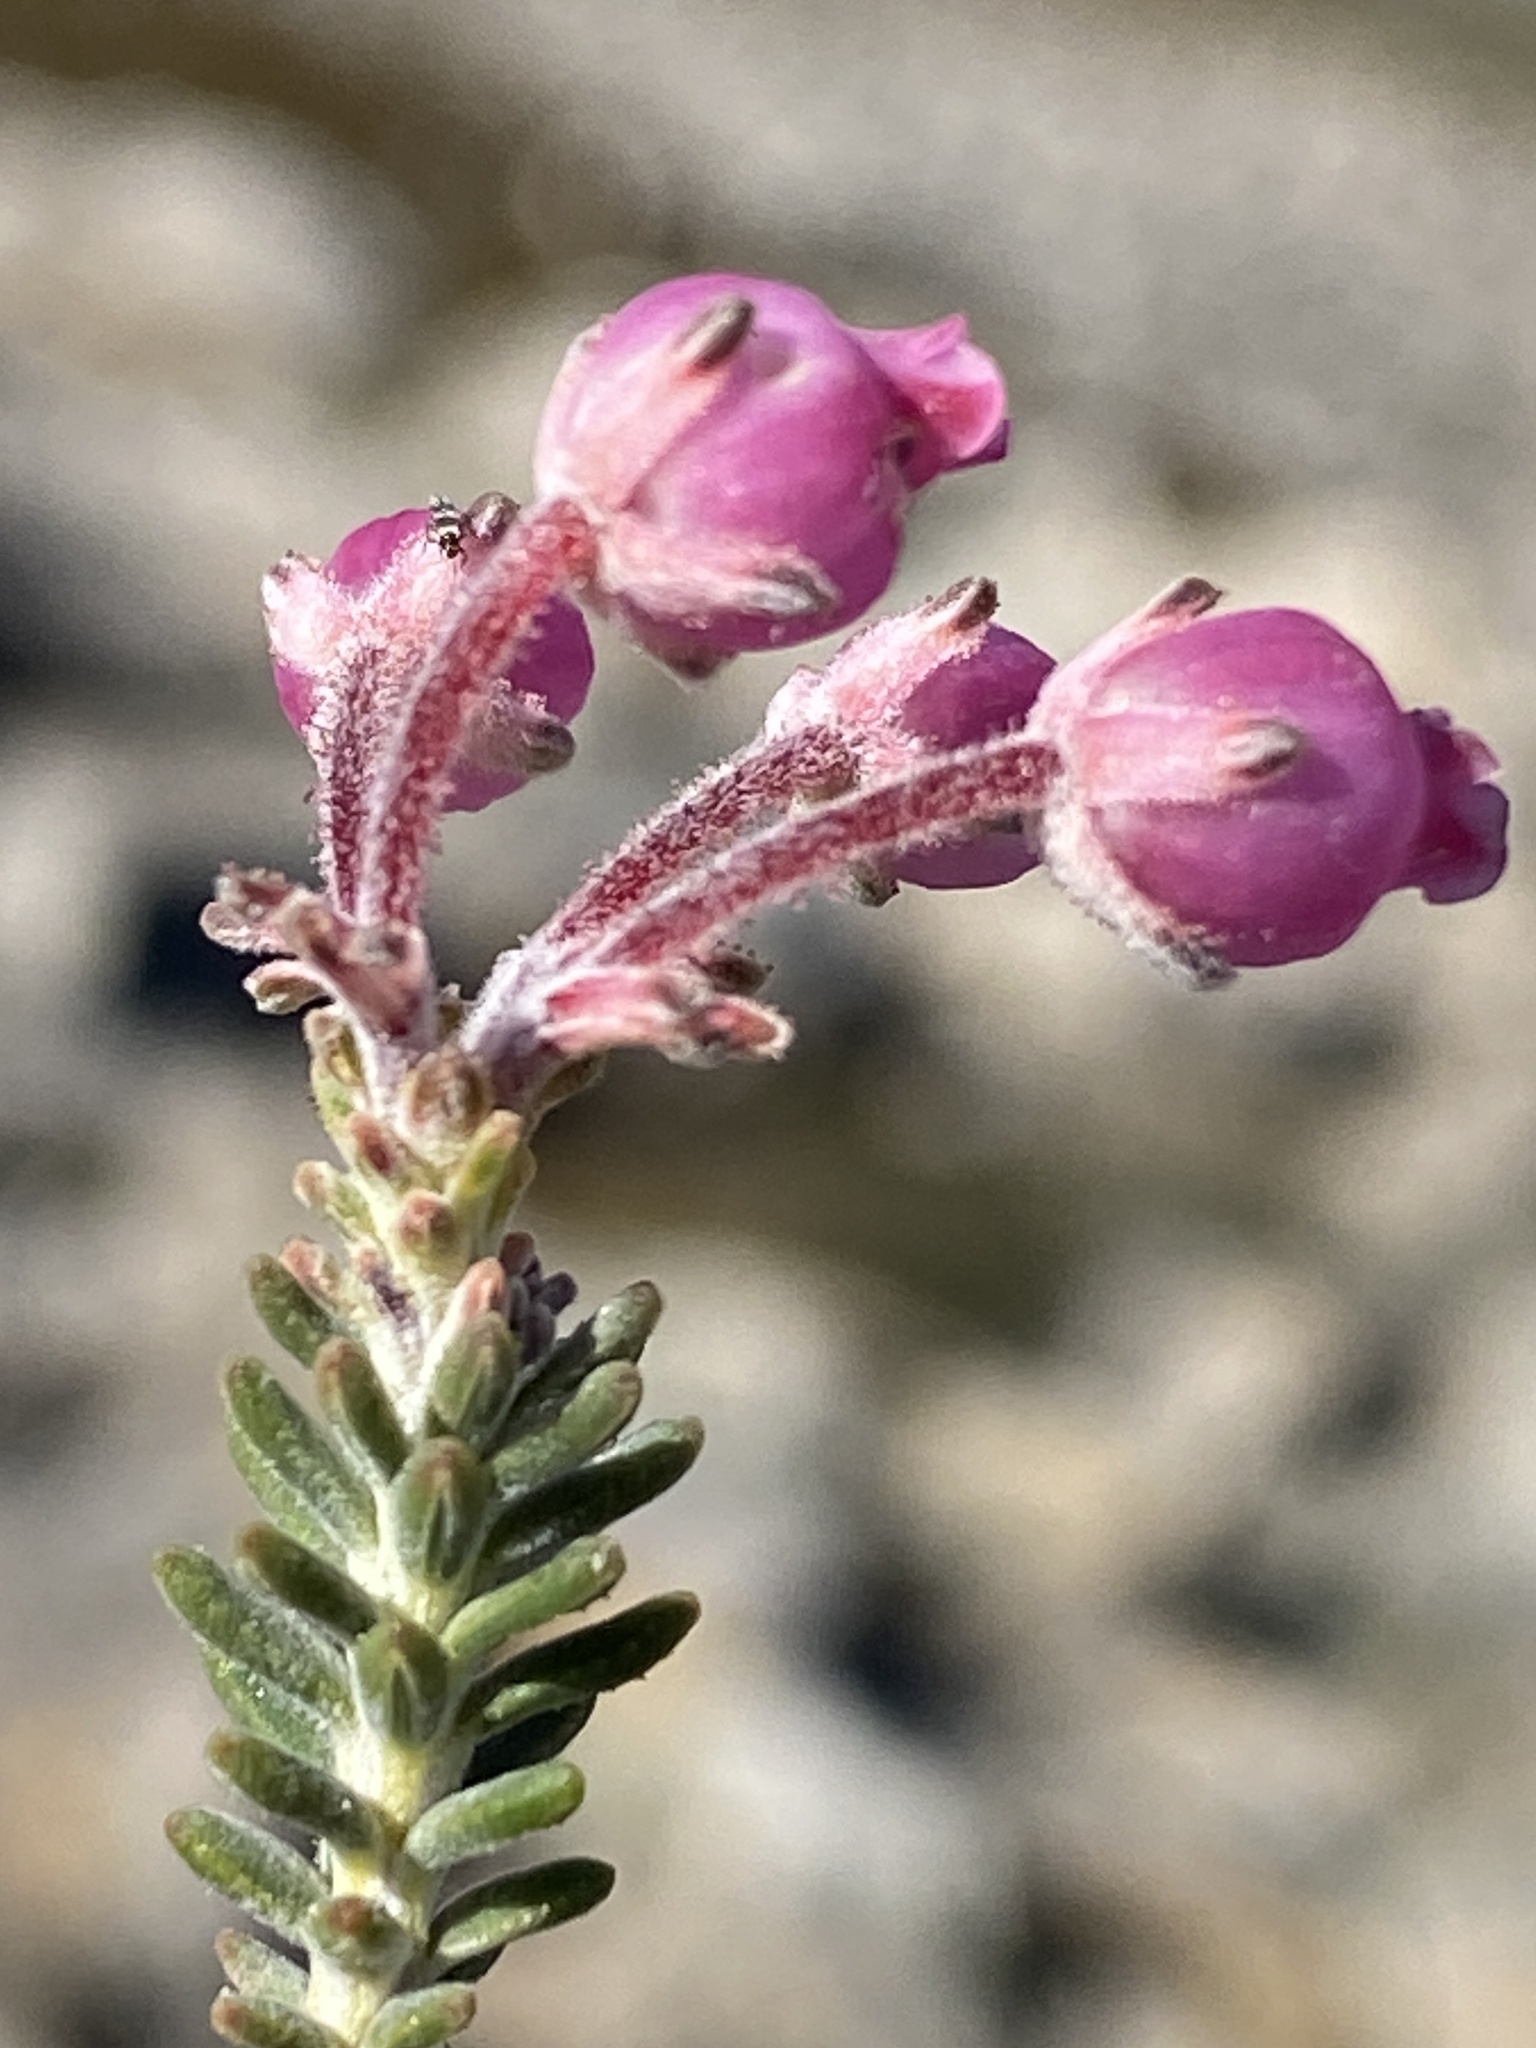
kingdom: Plantae
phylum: Tracheophyta
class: Magnoliopsida
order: Ericales
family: Ericaceae
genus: Erica
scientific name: Erica oresigena
